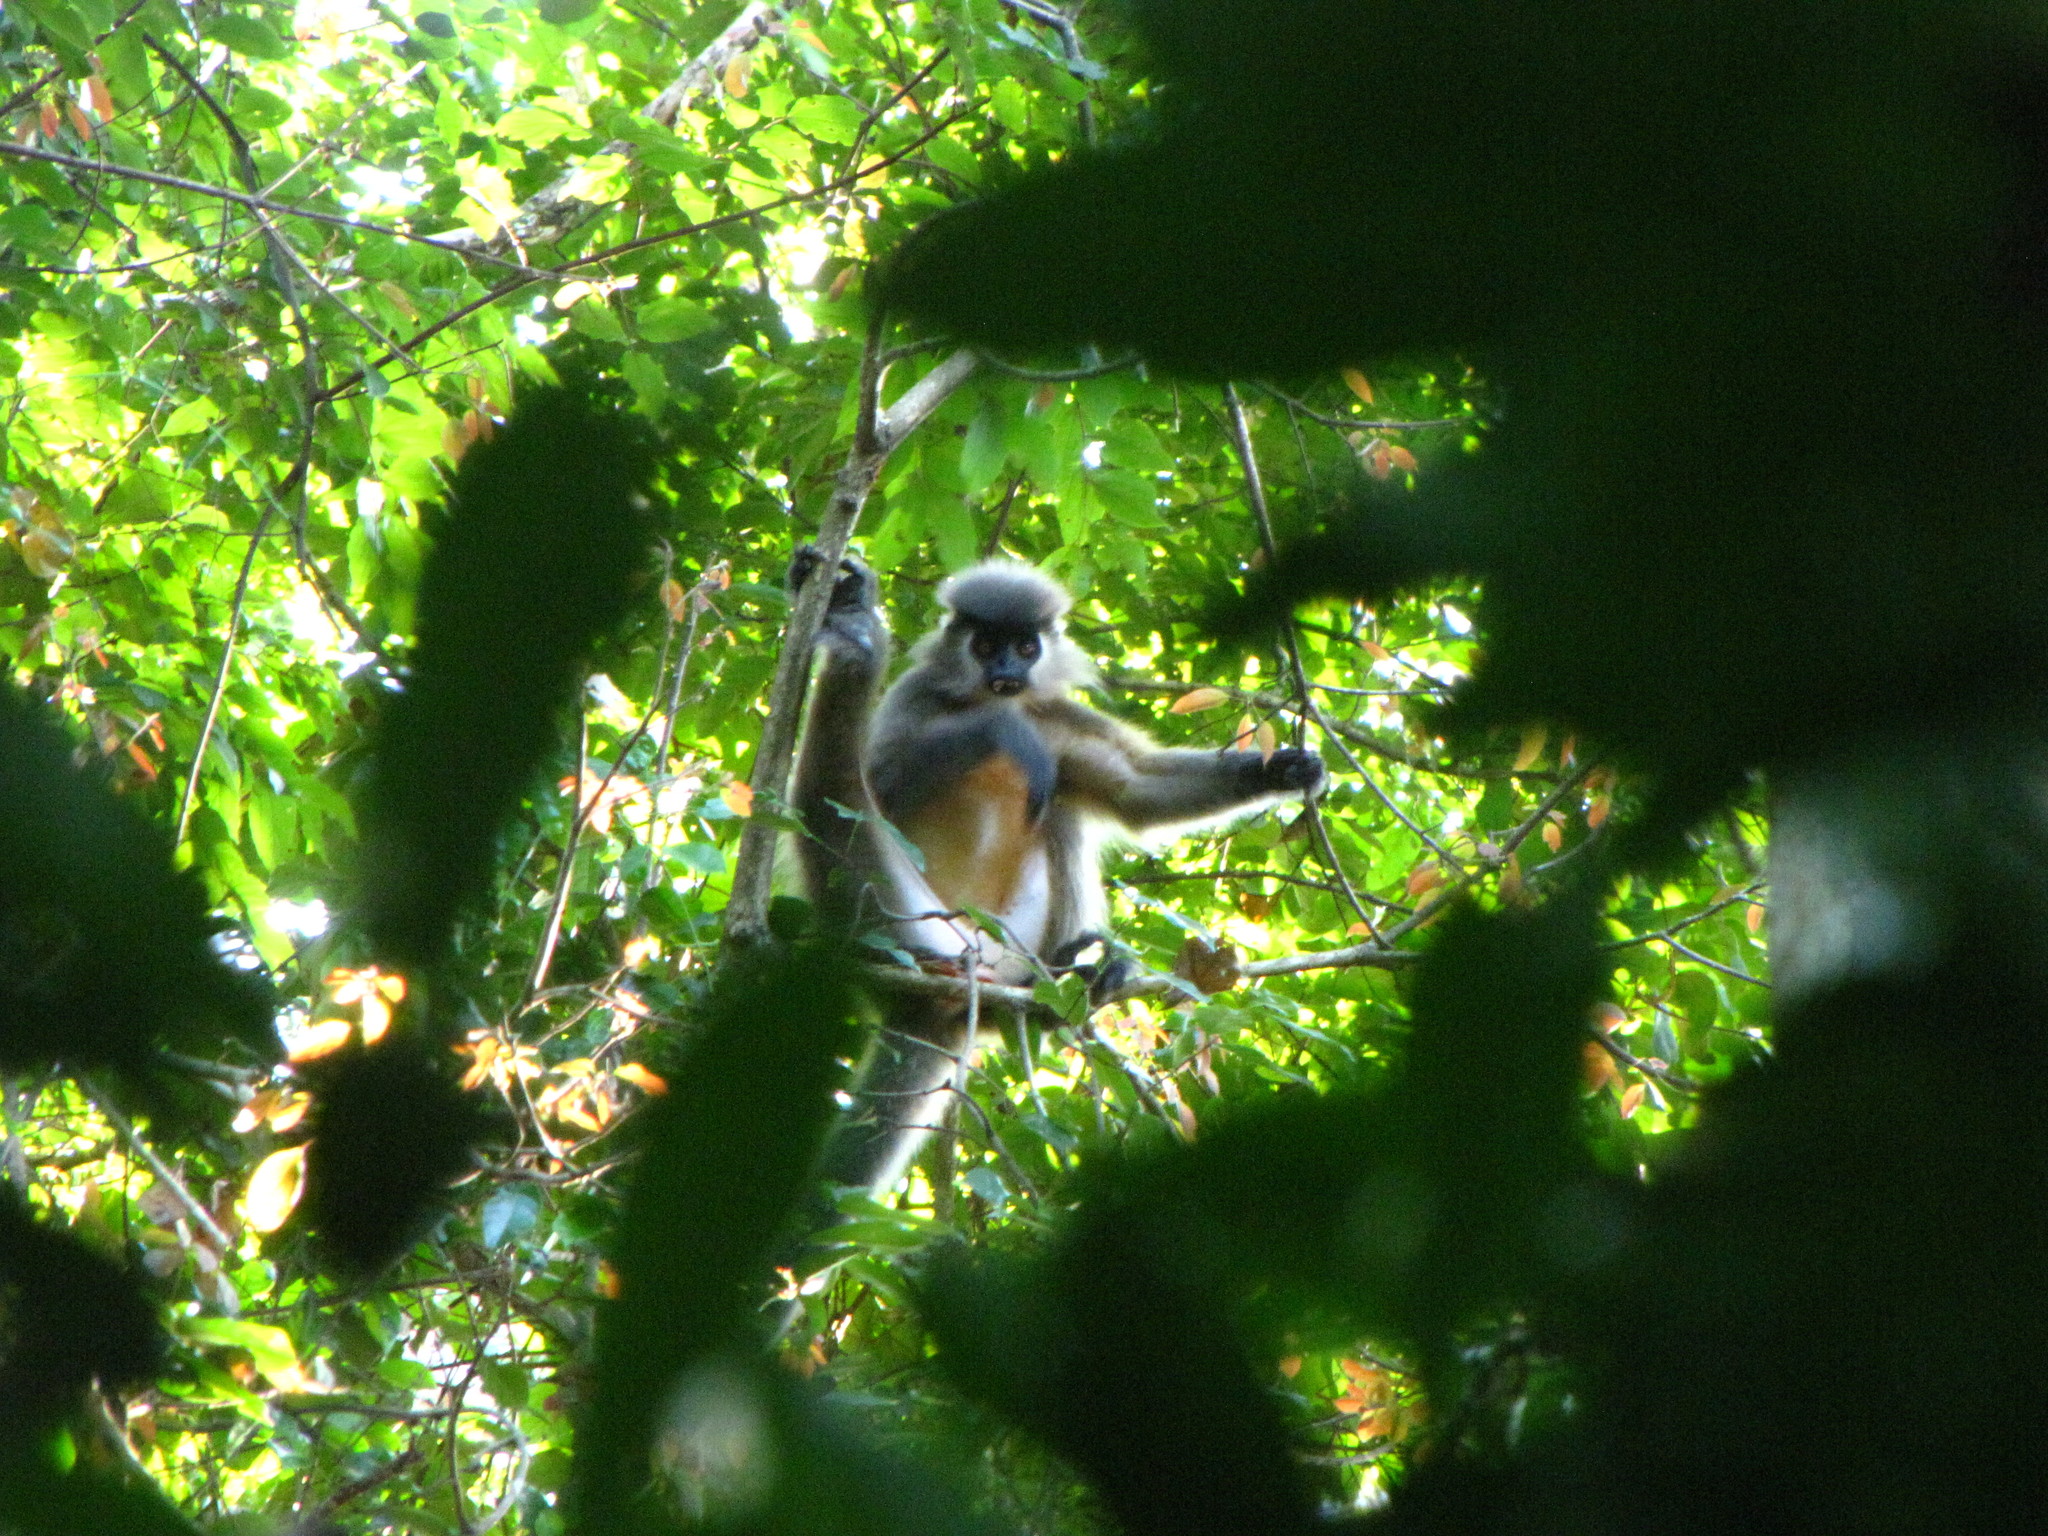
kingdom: Animalia
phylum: Chordata
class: Mammalia
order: Primates
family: Cercopithecidae
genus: Trachypithecus
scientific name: Trachypithecus pileatus
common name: Capped langur
